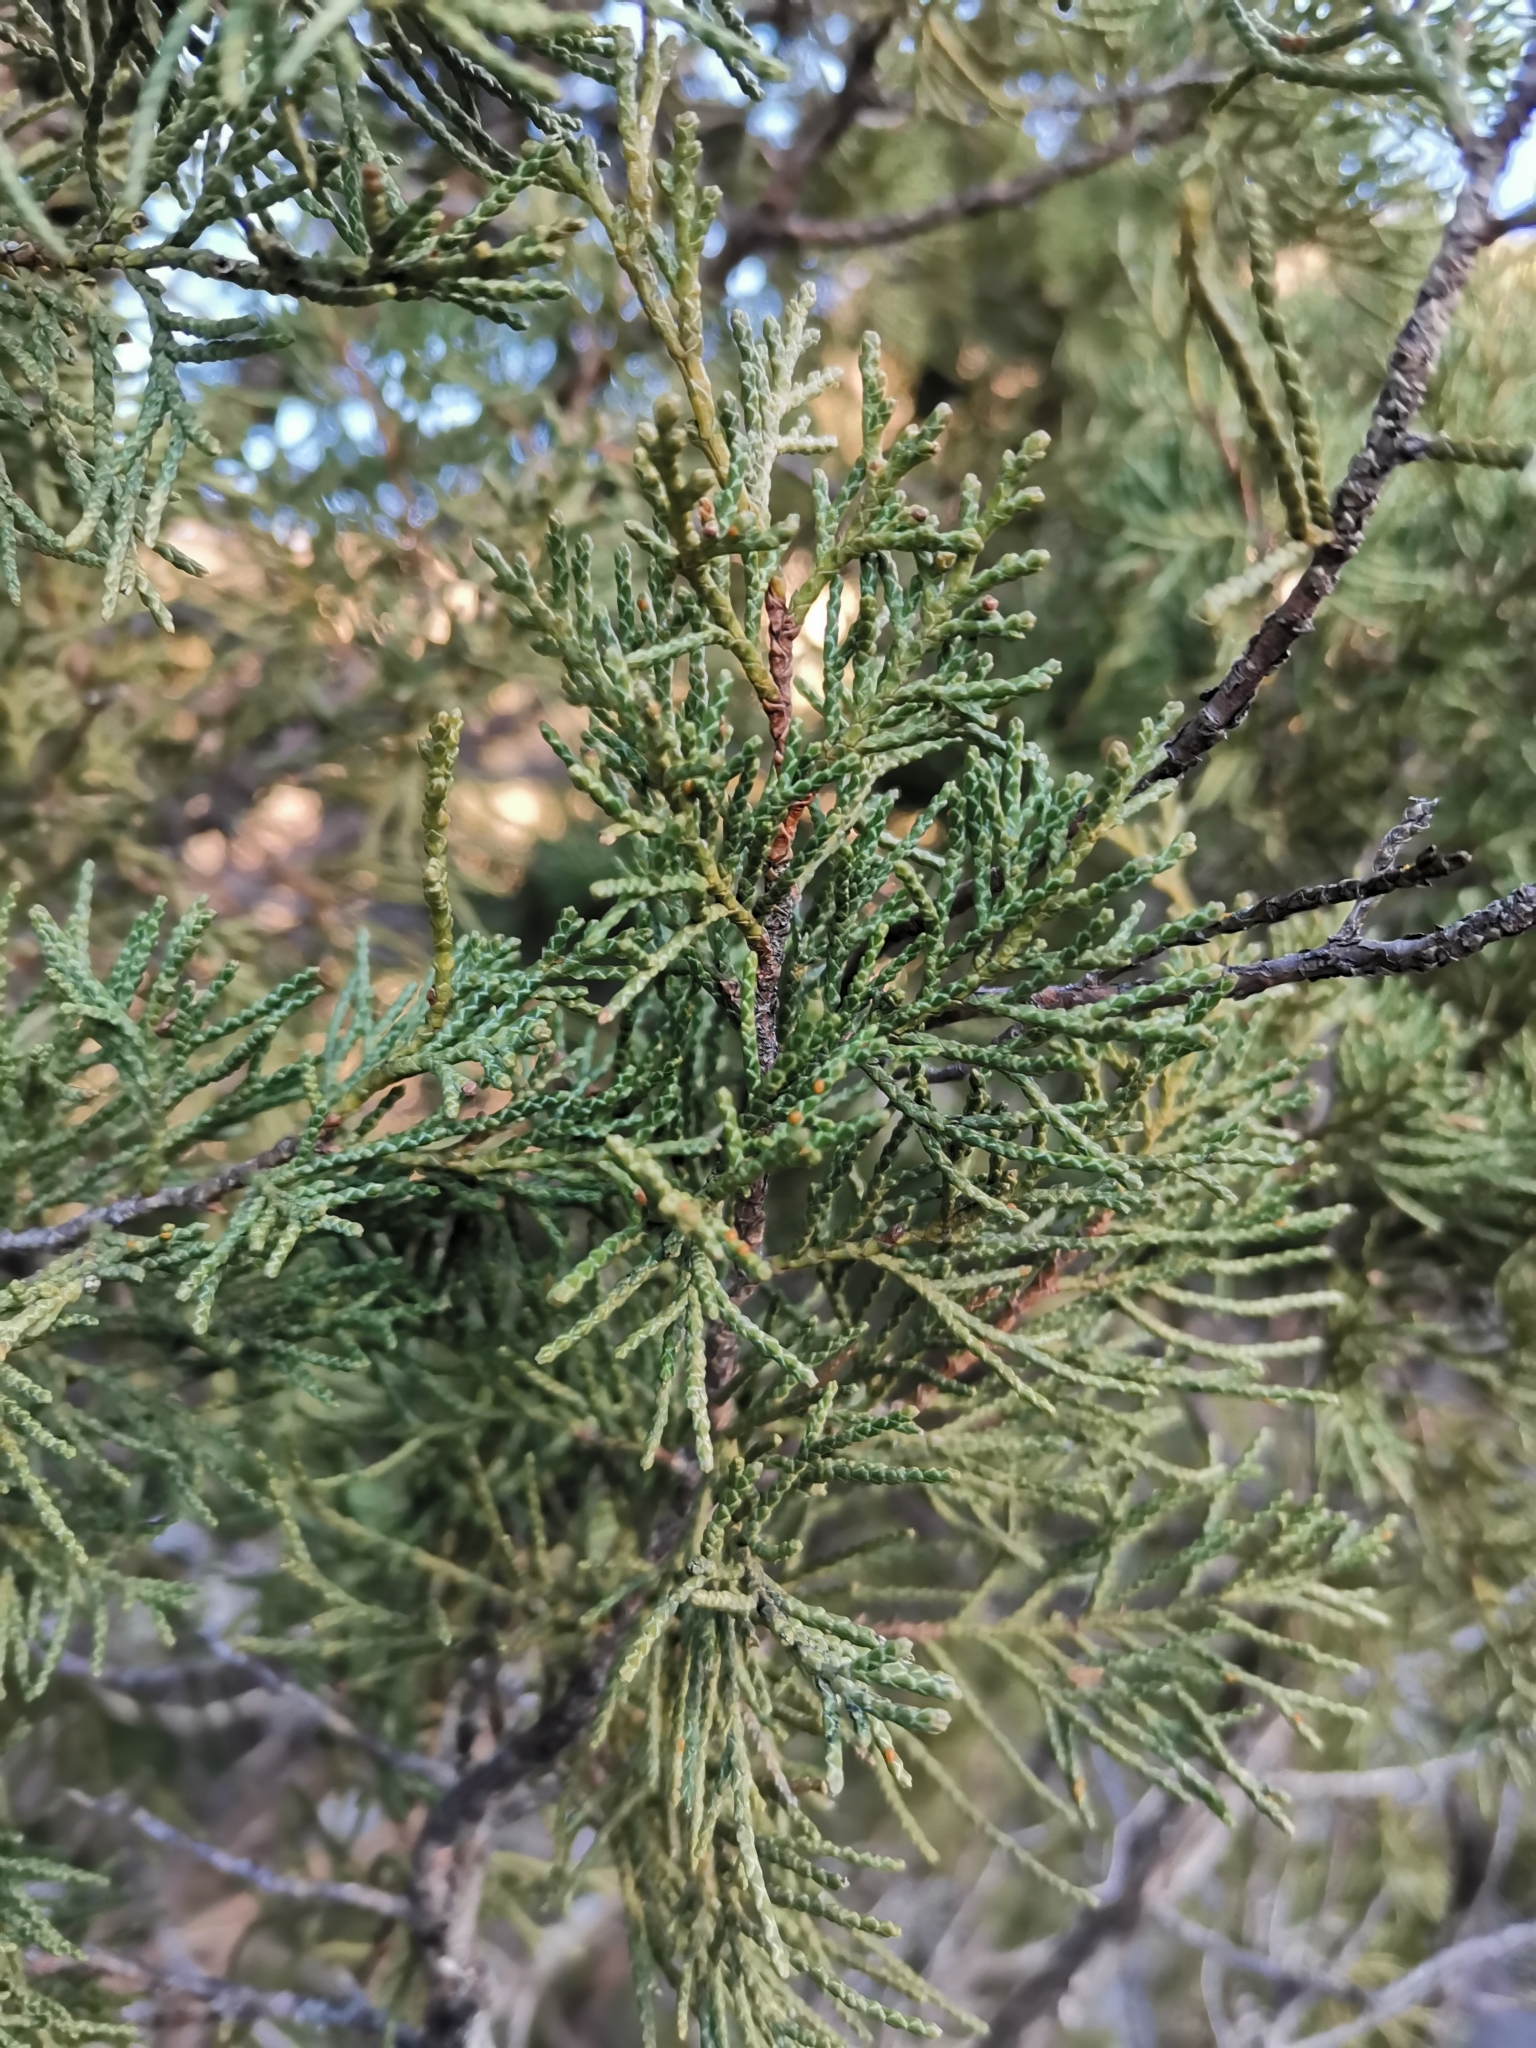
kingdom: Plantae
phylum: Tracheophyta
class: Pinopsida
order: Pinales
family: Cupressaceae
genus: Juniperus
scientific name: Juniperus thurifera
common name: Incense juniper
